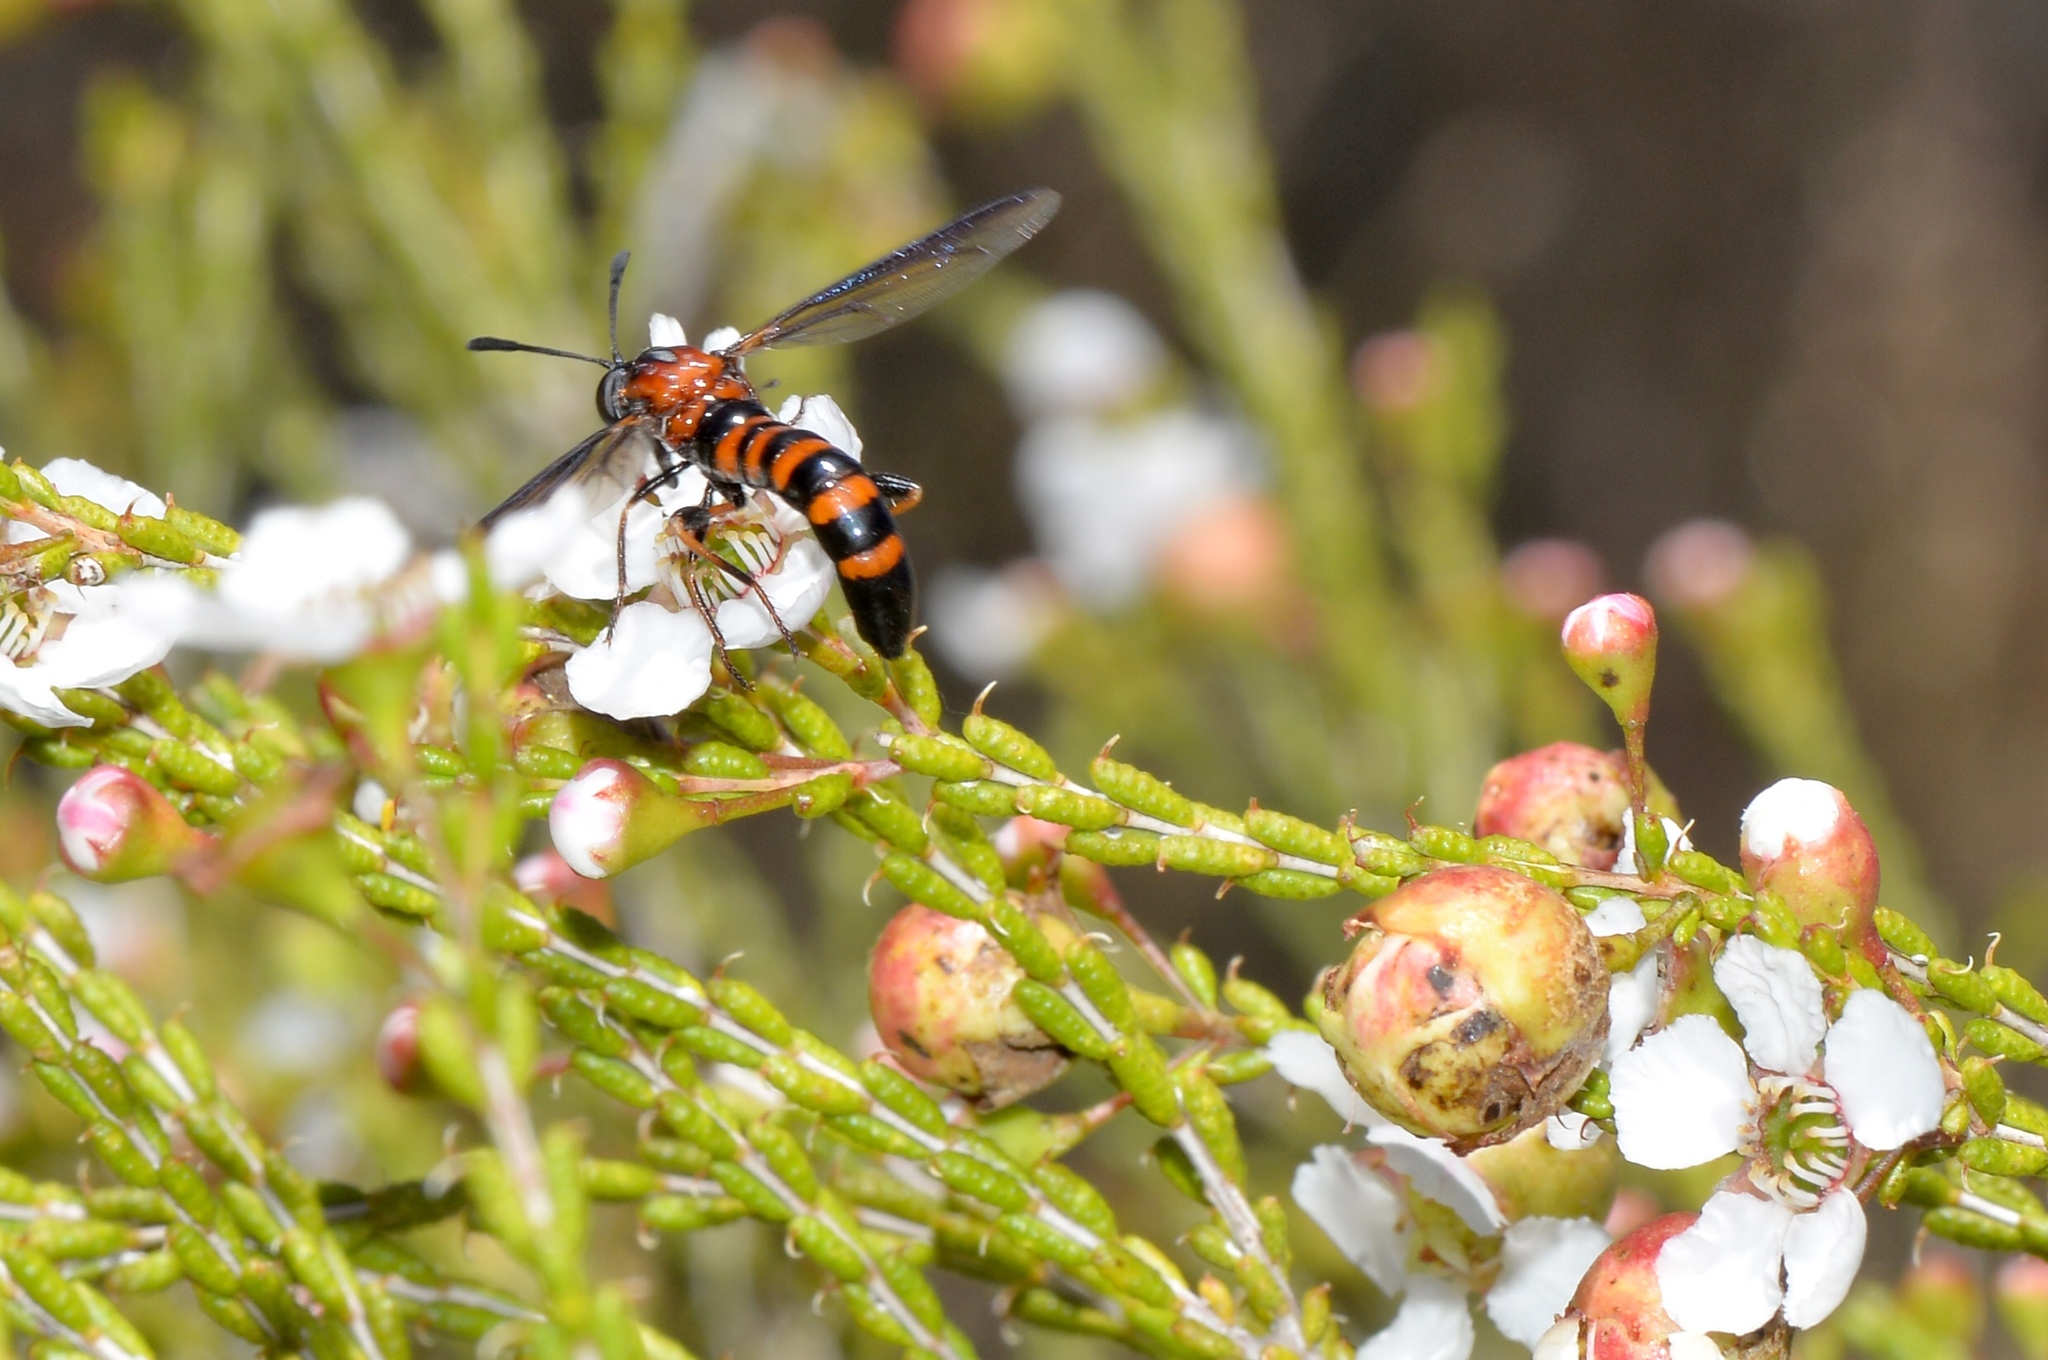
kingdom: Animalia
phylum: Arthropoda
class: Insecta
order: Diptera
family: Mydidae
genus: Diochlistus
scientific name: Diochlistus paragracilis
